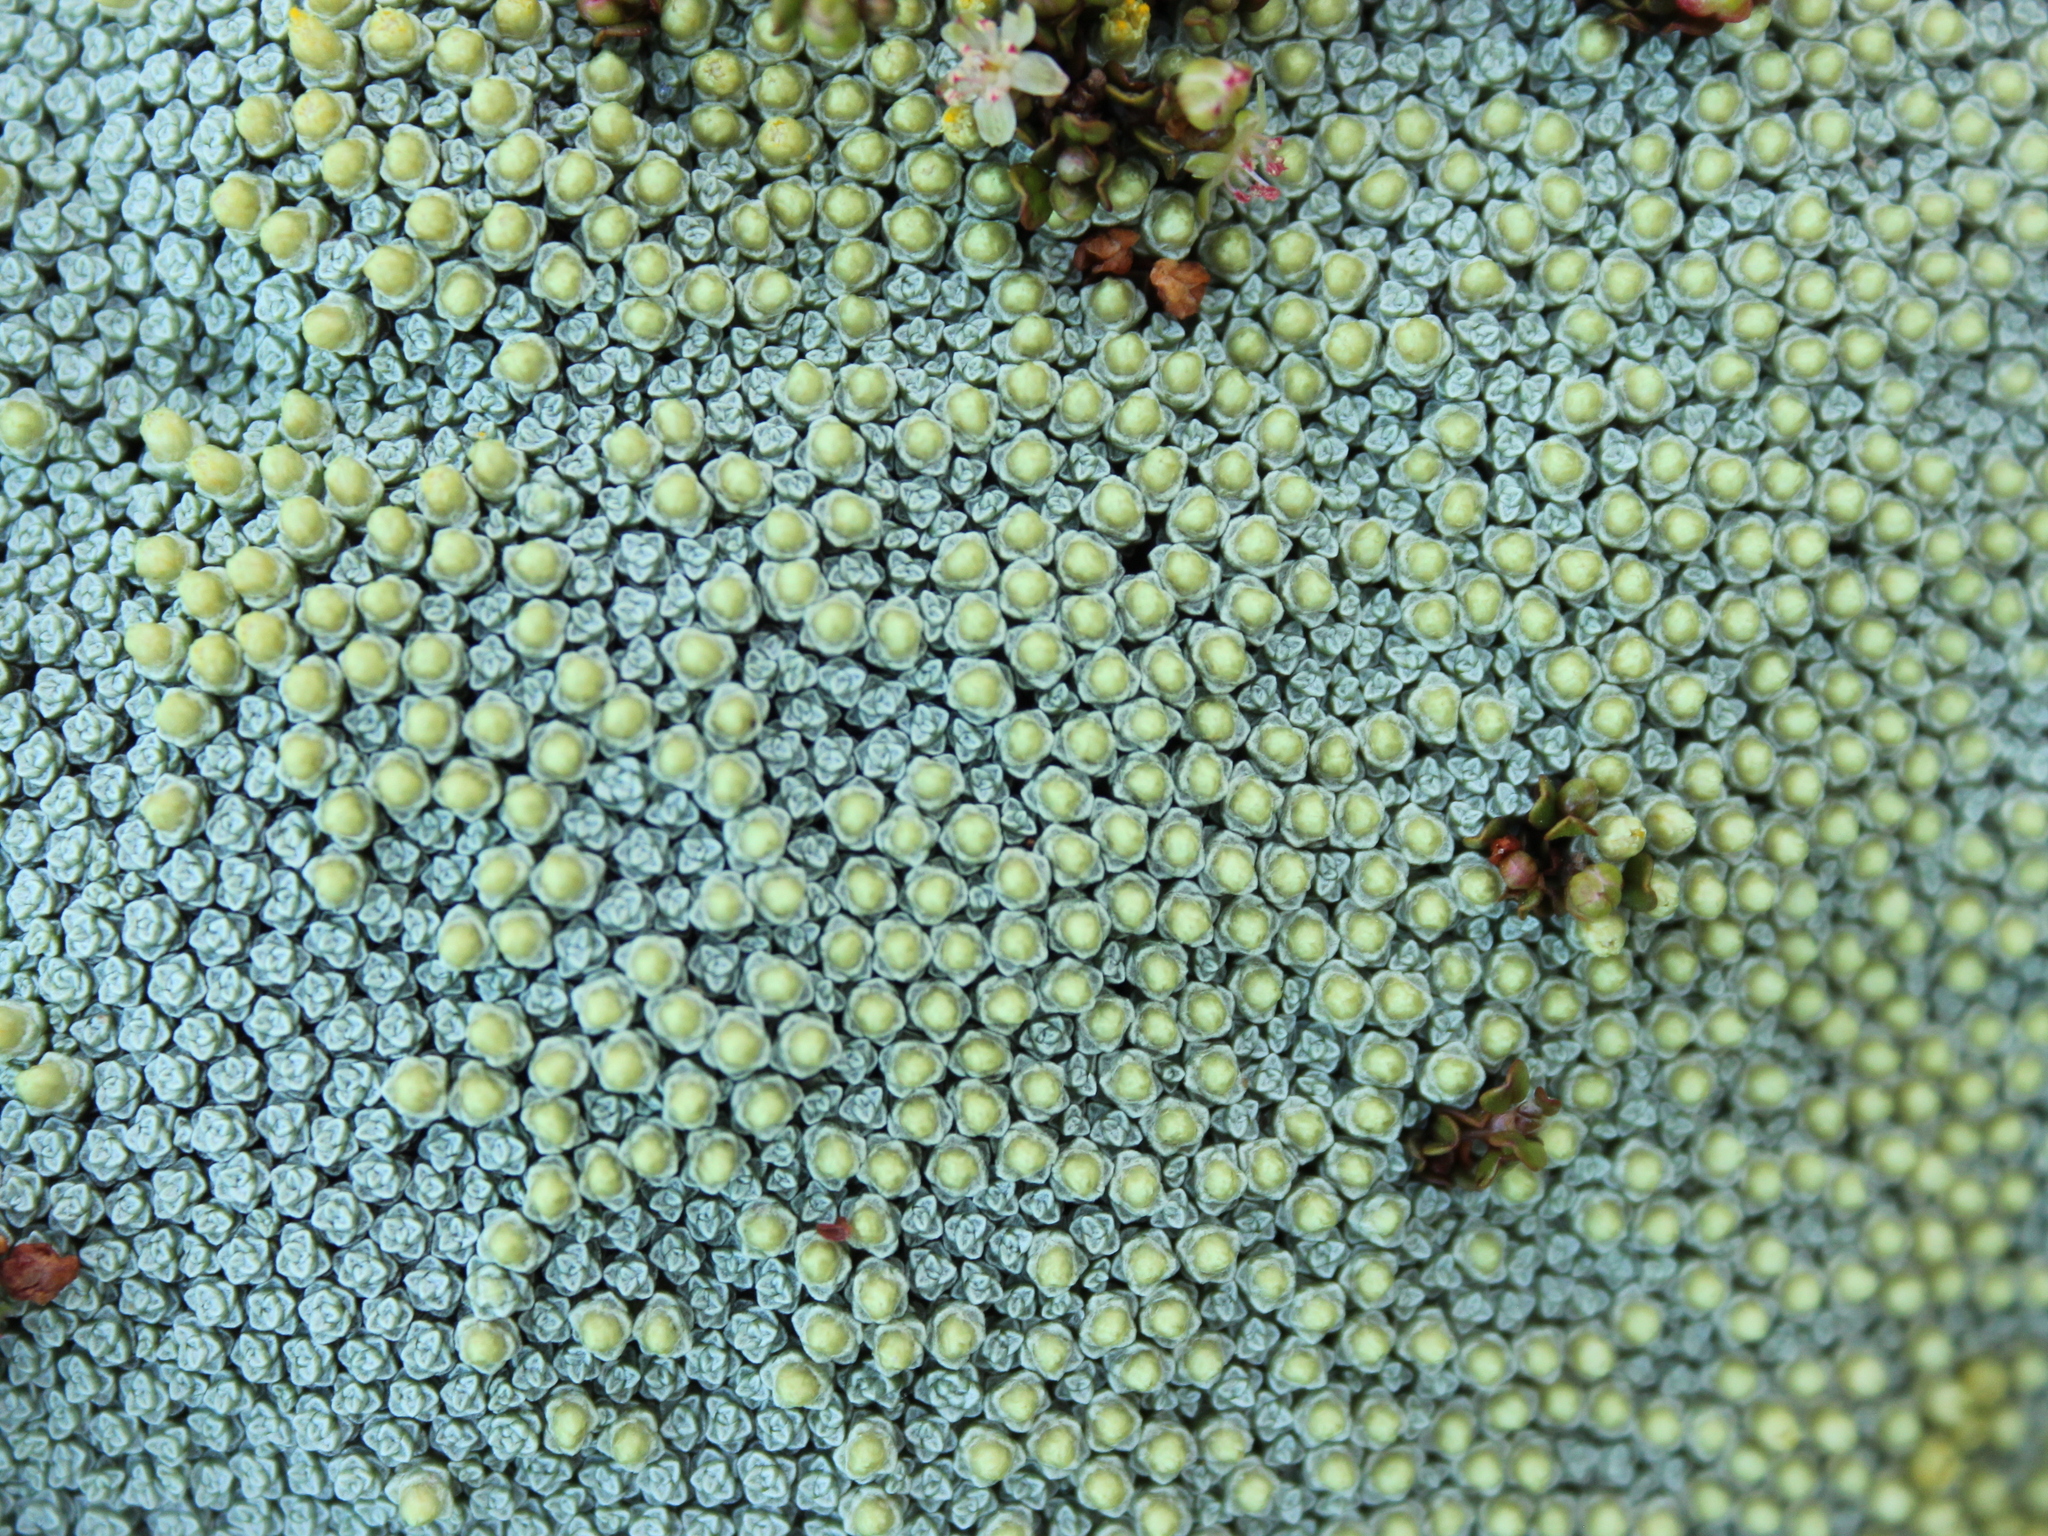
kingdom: Plantae
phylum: Tracheophyta
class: Magnoliopsida
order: Asterales
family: Asteraceae
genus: Raoulia
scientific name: Raoulia australis
